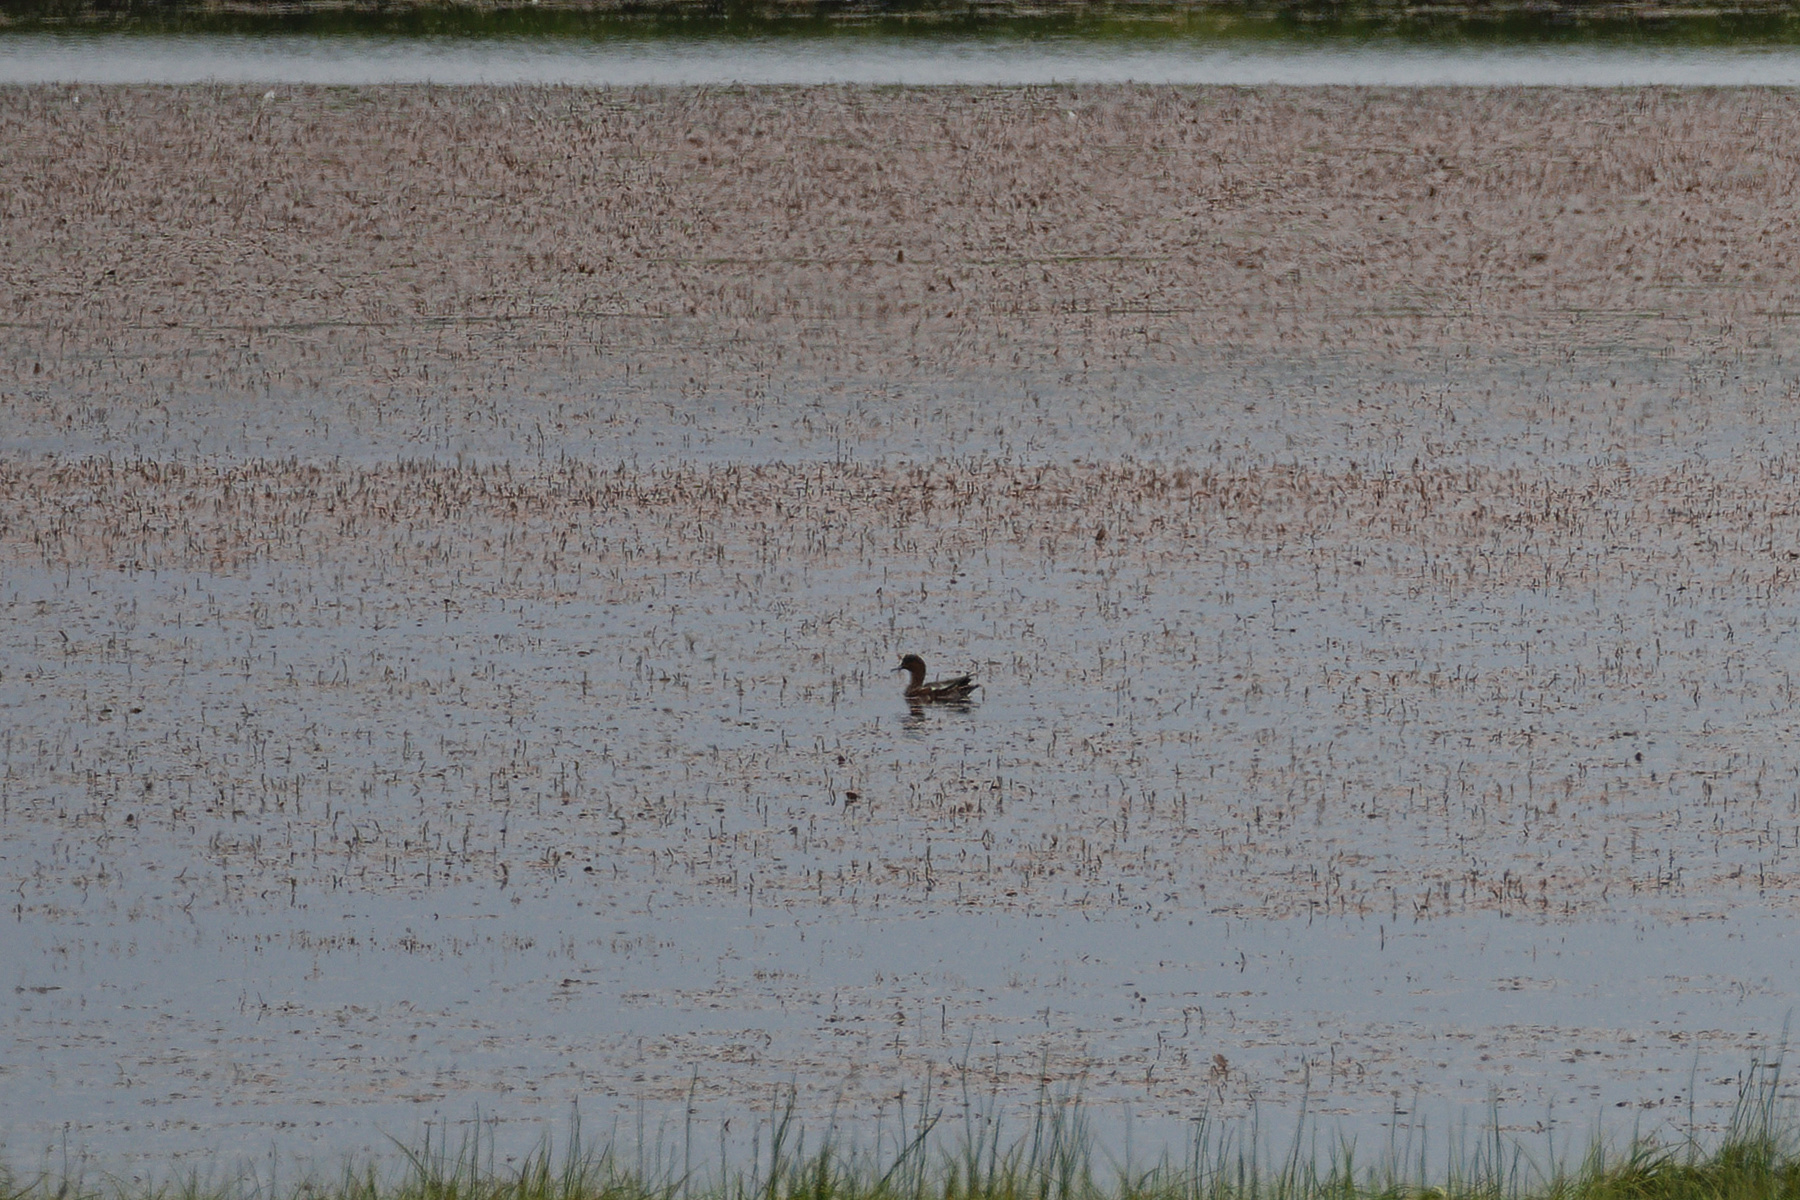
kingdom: Animalia
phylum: Chordata
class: Aves
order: Anseriformes
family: Anatidae
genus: Mareca
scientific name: Mareca penelope
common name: Eurasian wigeon
